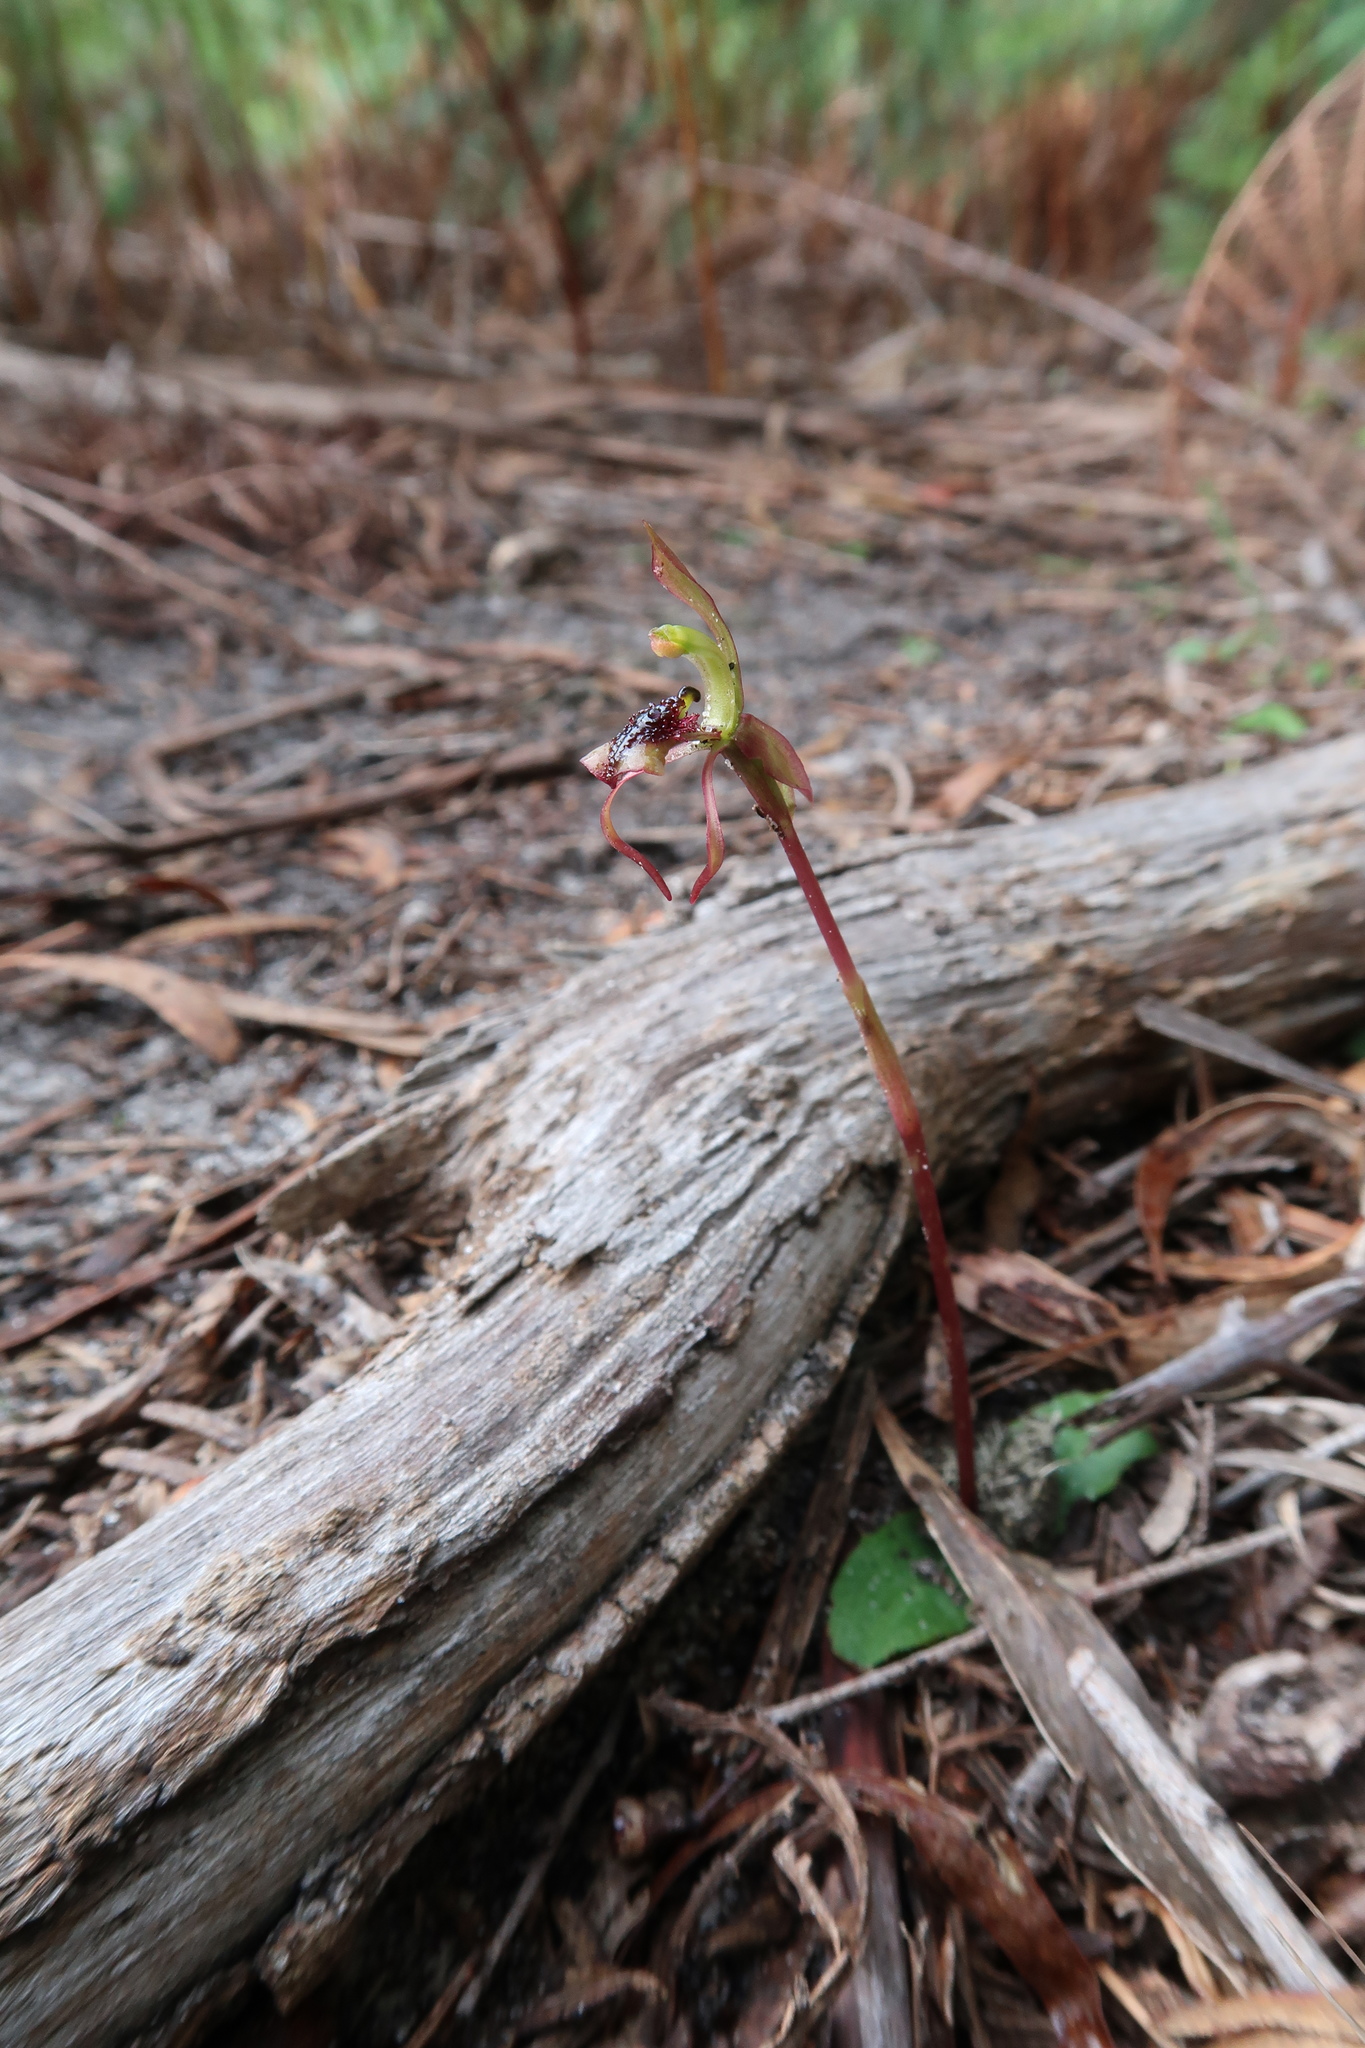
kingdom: Plantae
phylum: Tracheophyta
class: Liliopsida
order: Asparagales
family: Orchidaceae
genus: Chiloglottis
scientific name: Chiloglottis reflexa
